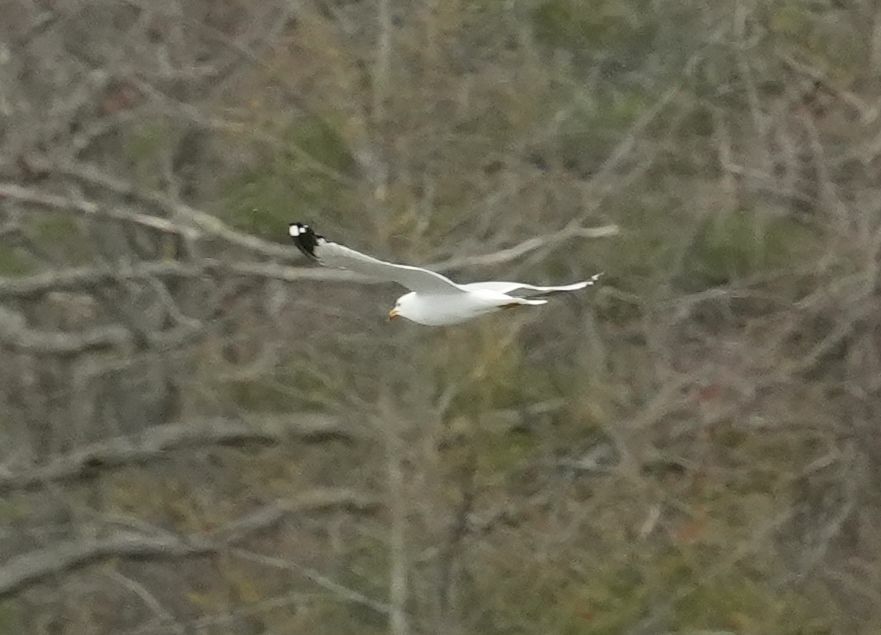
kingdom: Animalia
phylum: Chordata
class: Aves
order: Charadriiformes
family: Laridae
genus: Larus
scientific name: Larus delawarensis
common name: Ring-billed gull
